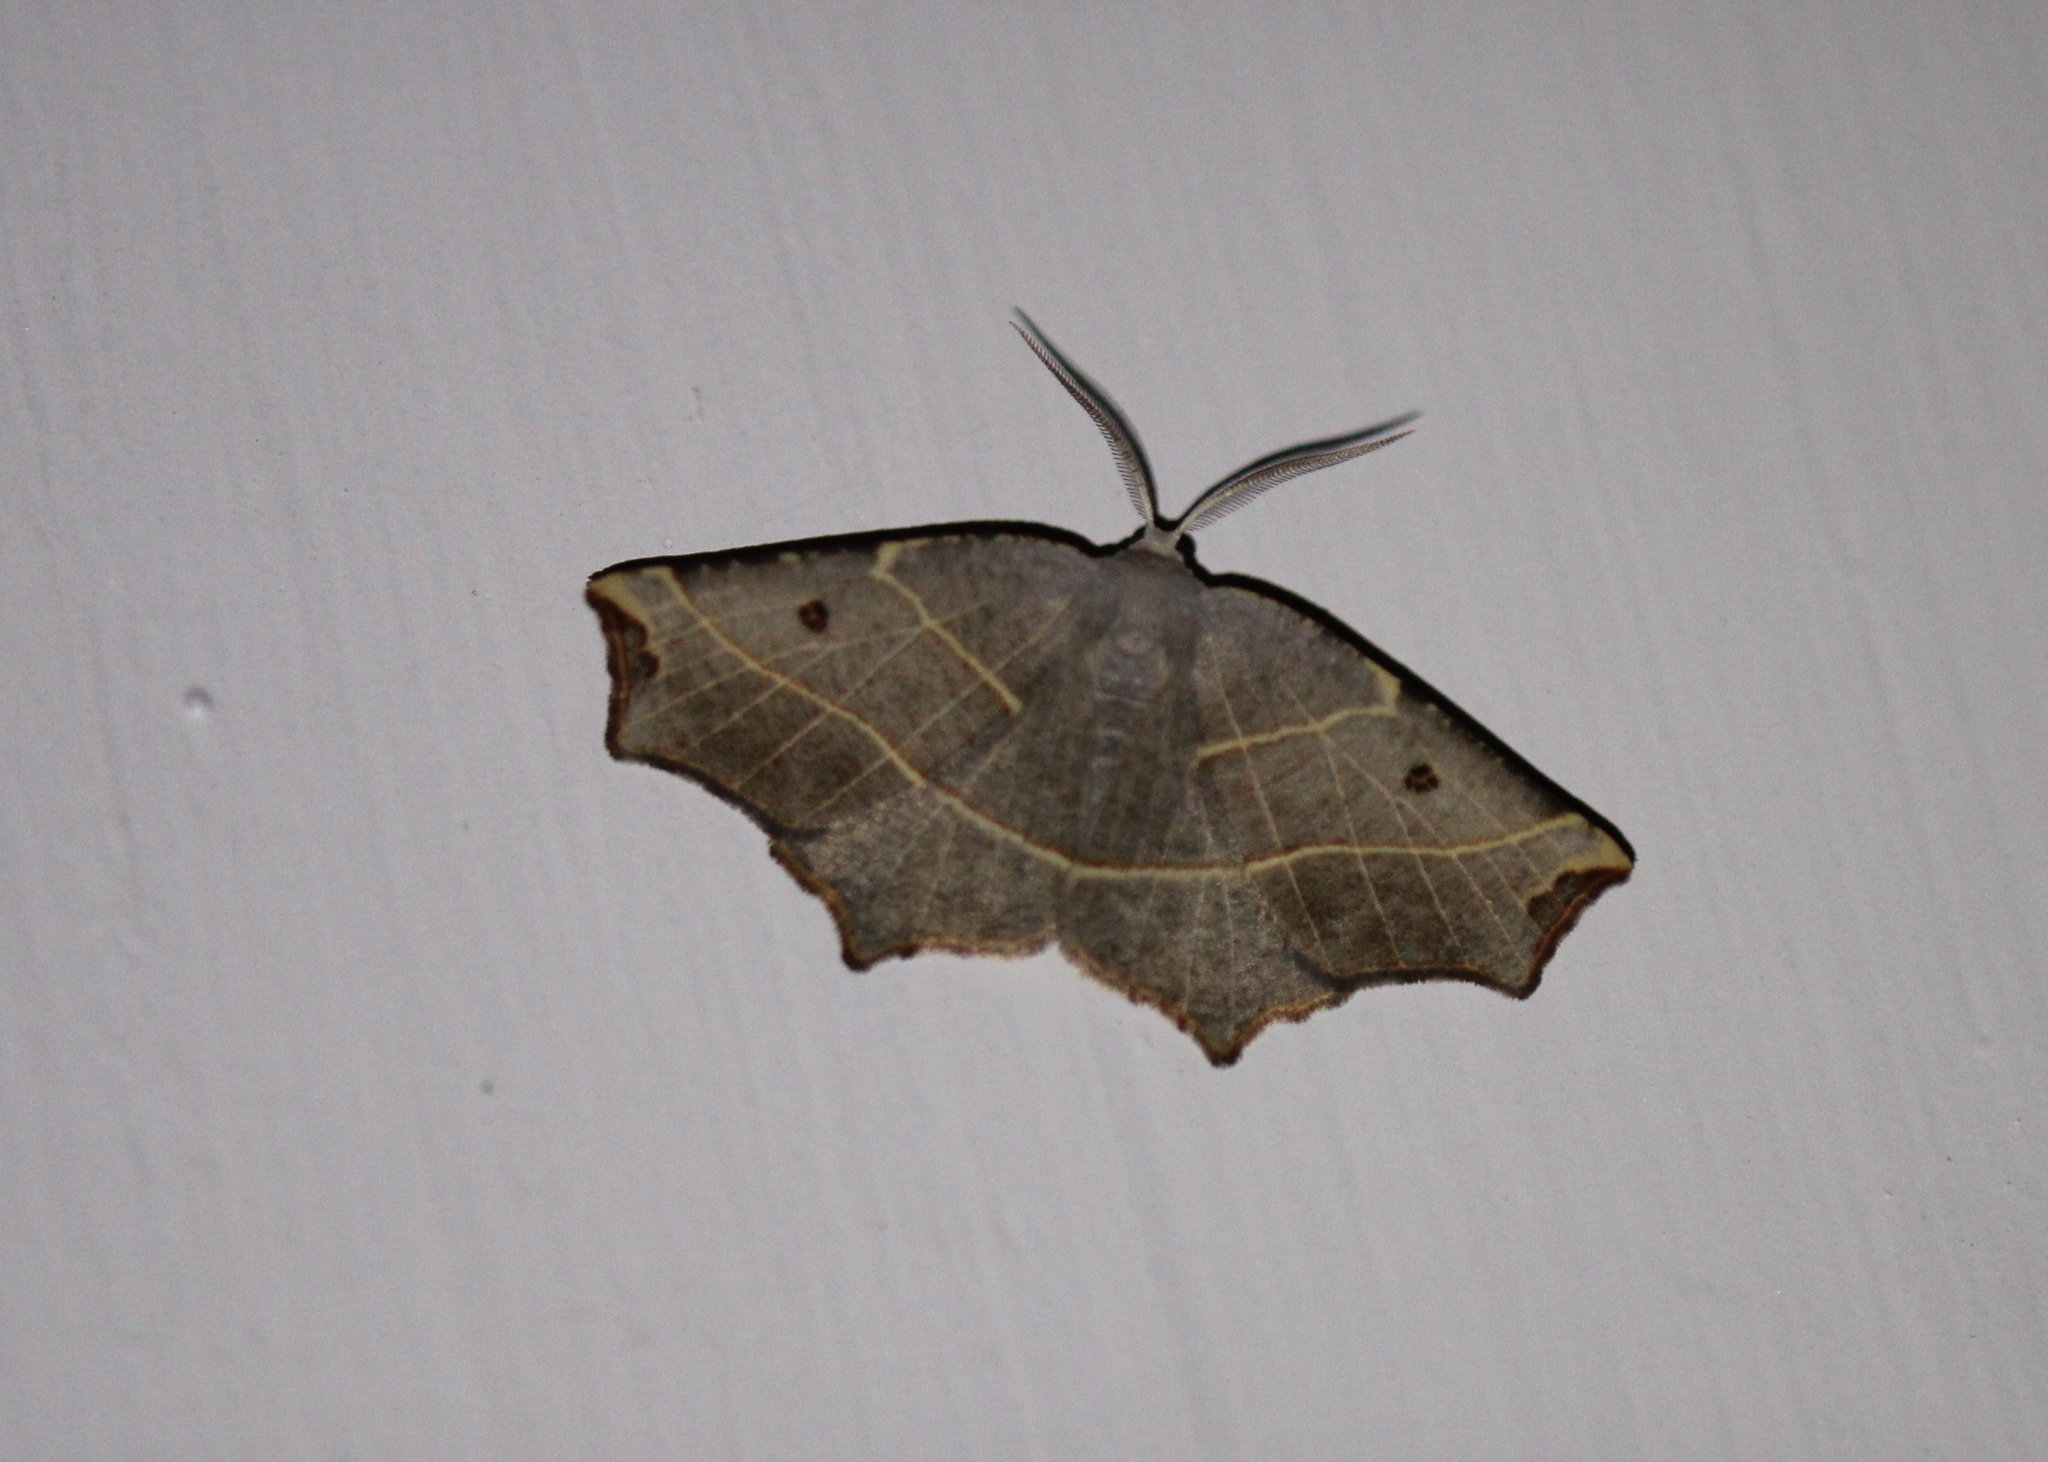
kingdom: Animalia
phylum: Arthropoda
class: Insecta
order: Lepidoptera
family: Geometridae
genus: Metanema
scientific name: Metanema inatomaria
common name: Pale metanema
